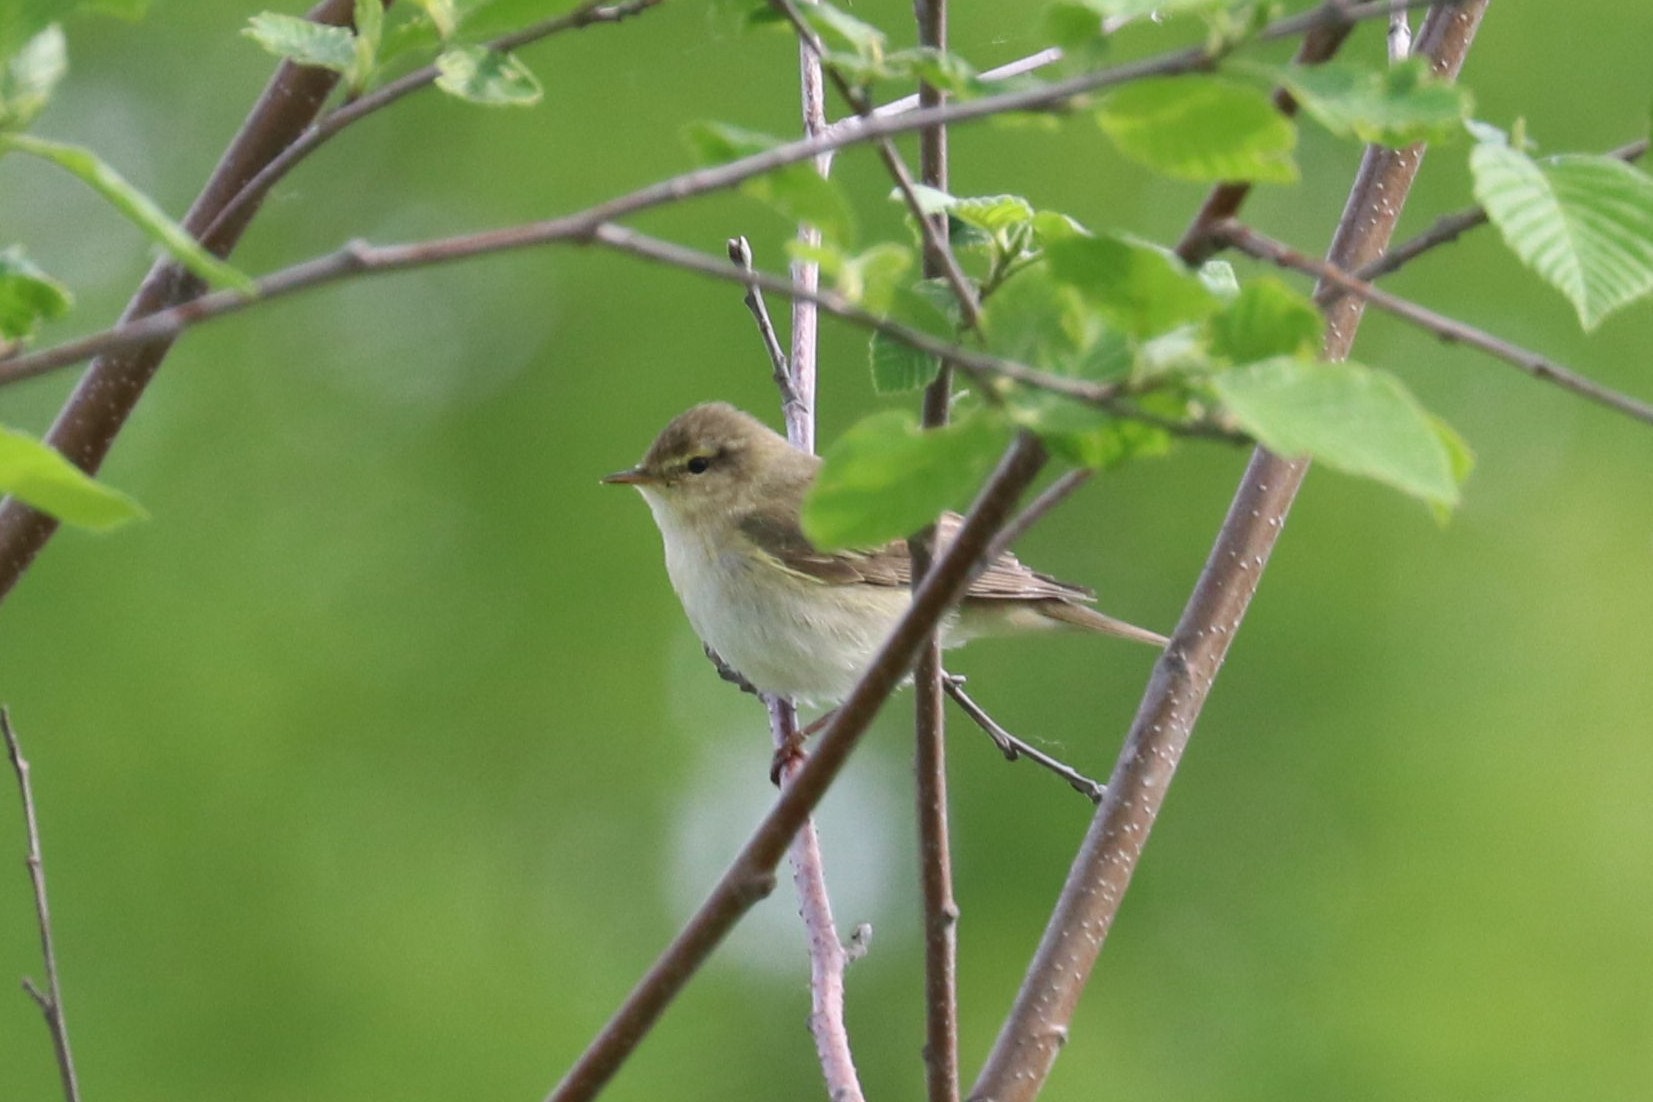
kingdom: Animalia
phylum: Chordata
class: Aves
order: Passeriformes
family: Phylloscopidae
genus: Phylloscopus
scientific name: Phylloscopus trochilus
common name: Willow warbler
